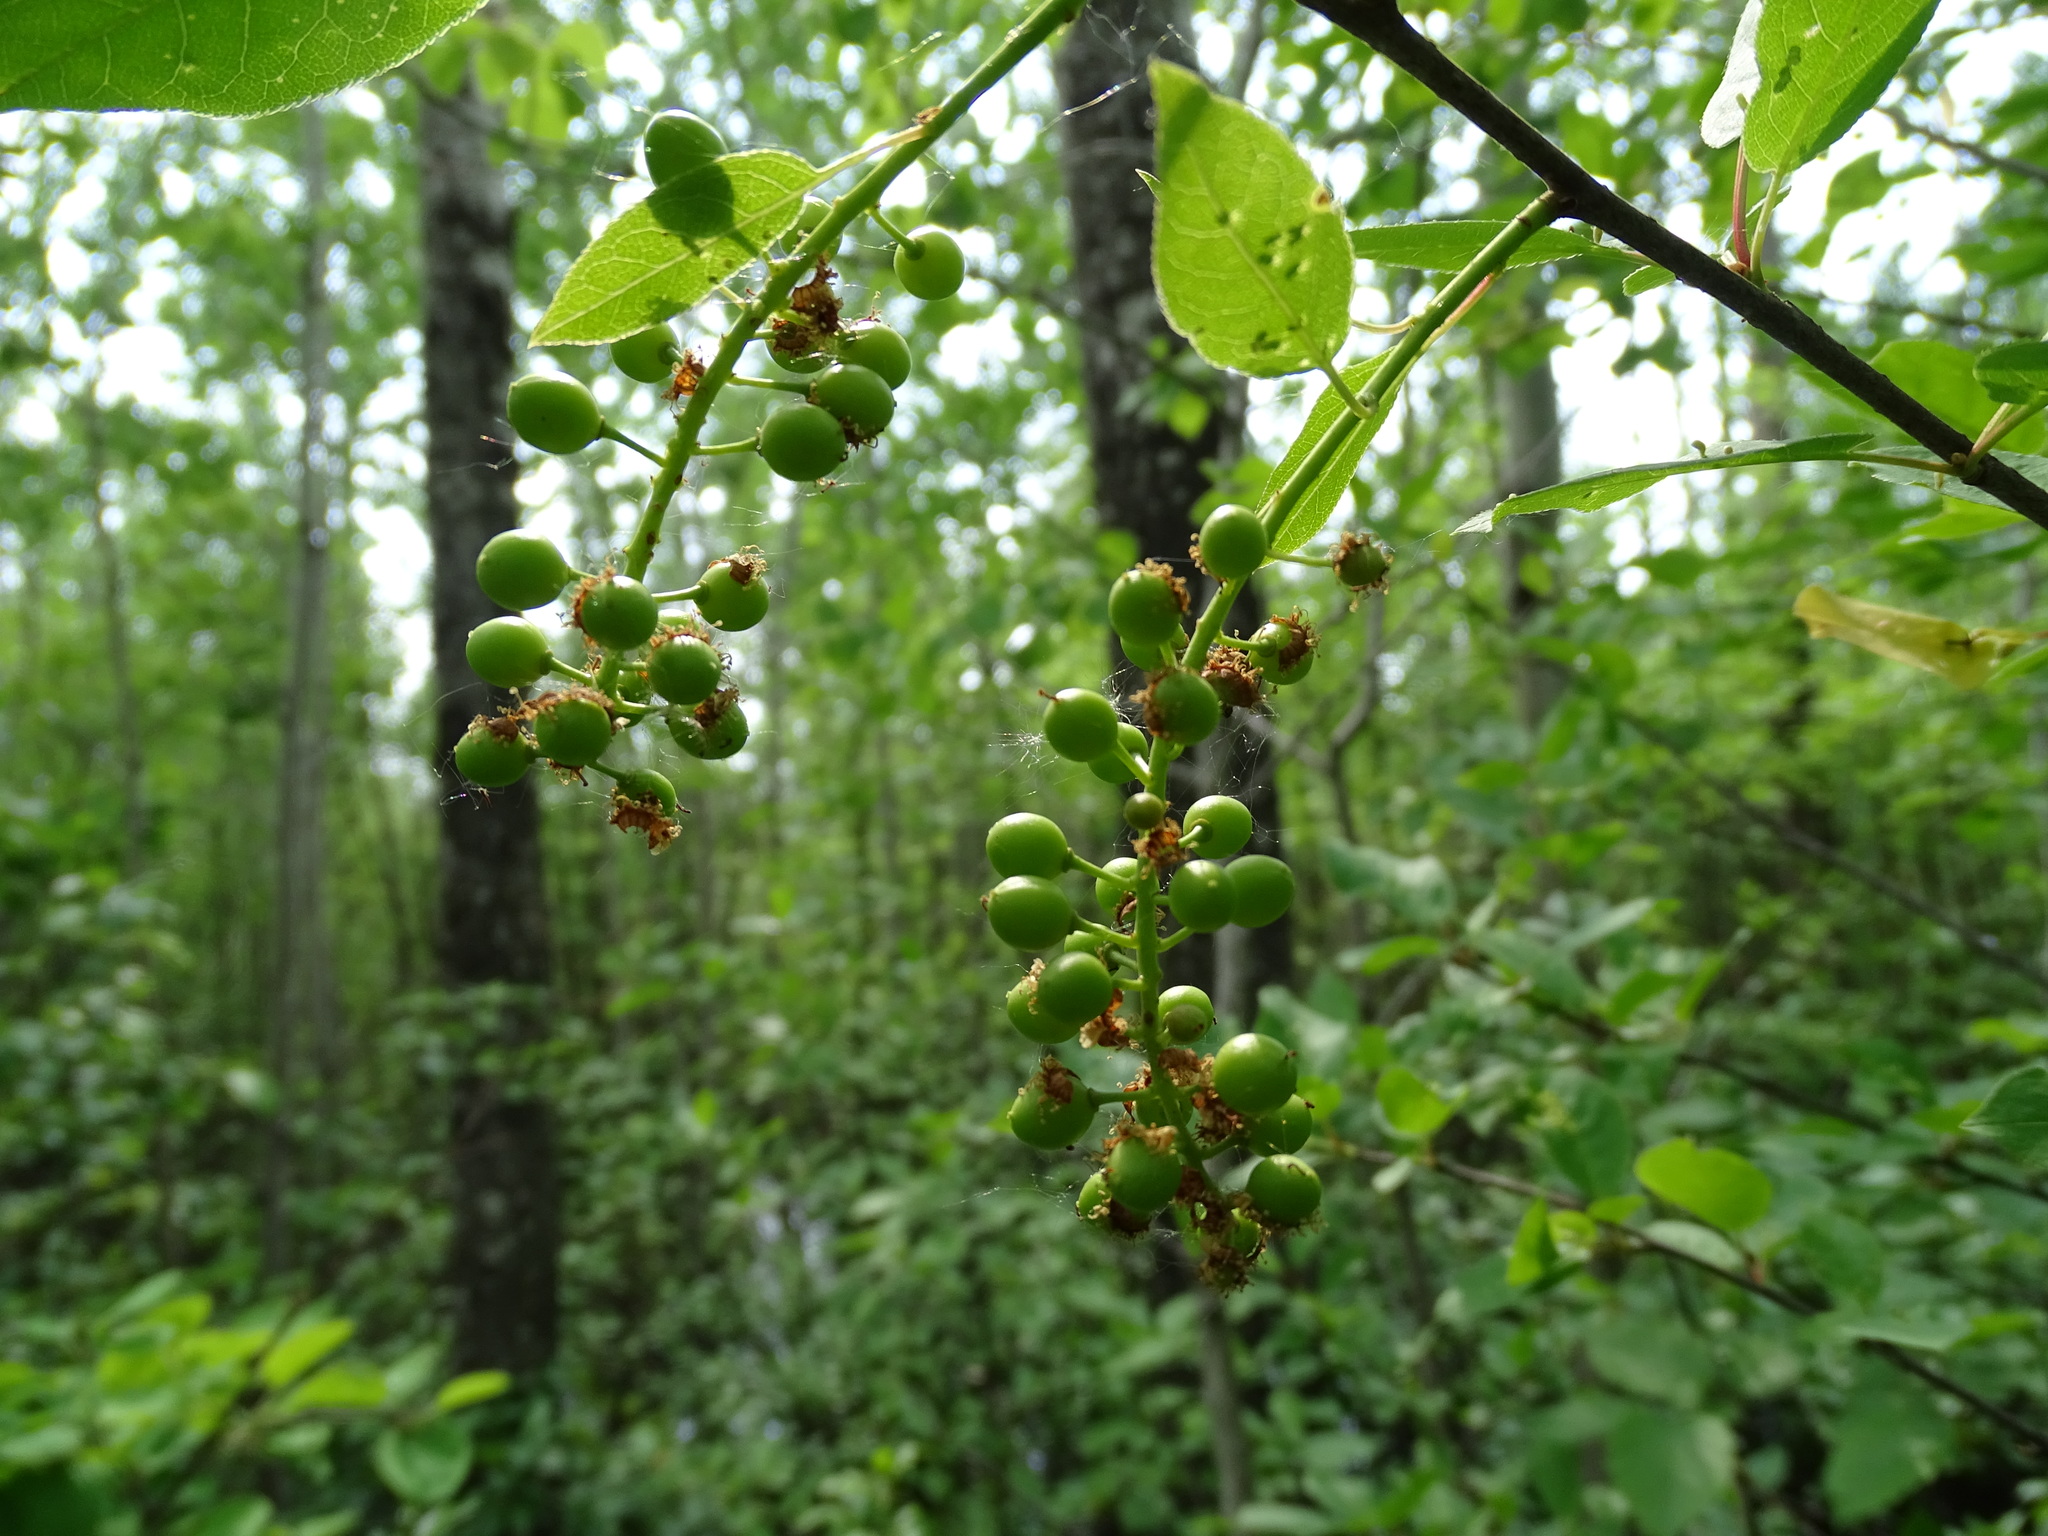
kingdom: Plantae
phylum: Tracheophyta
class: Magnoliopsida
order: Rosales
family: Rosaceae
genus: Prunus
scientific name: Prunus virginiana
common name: Chokecherry
